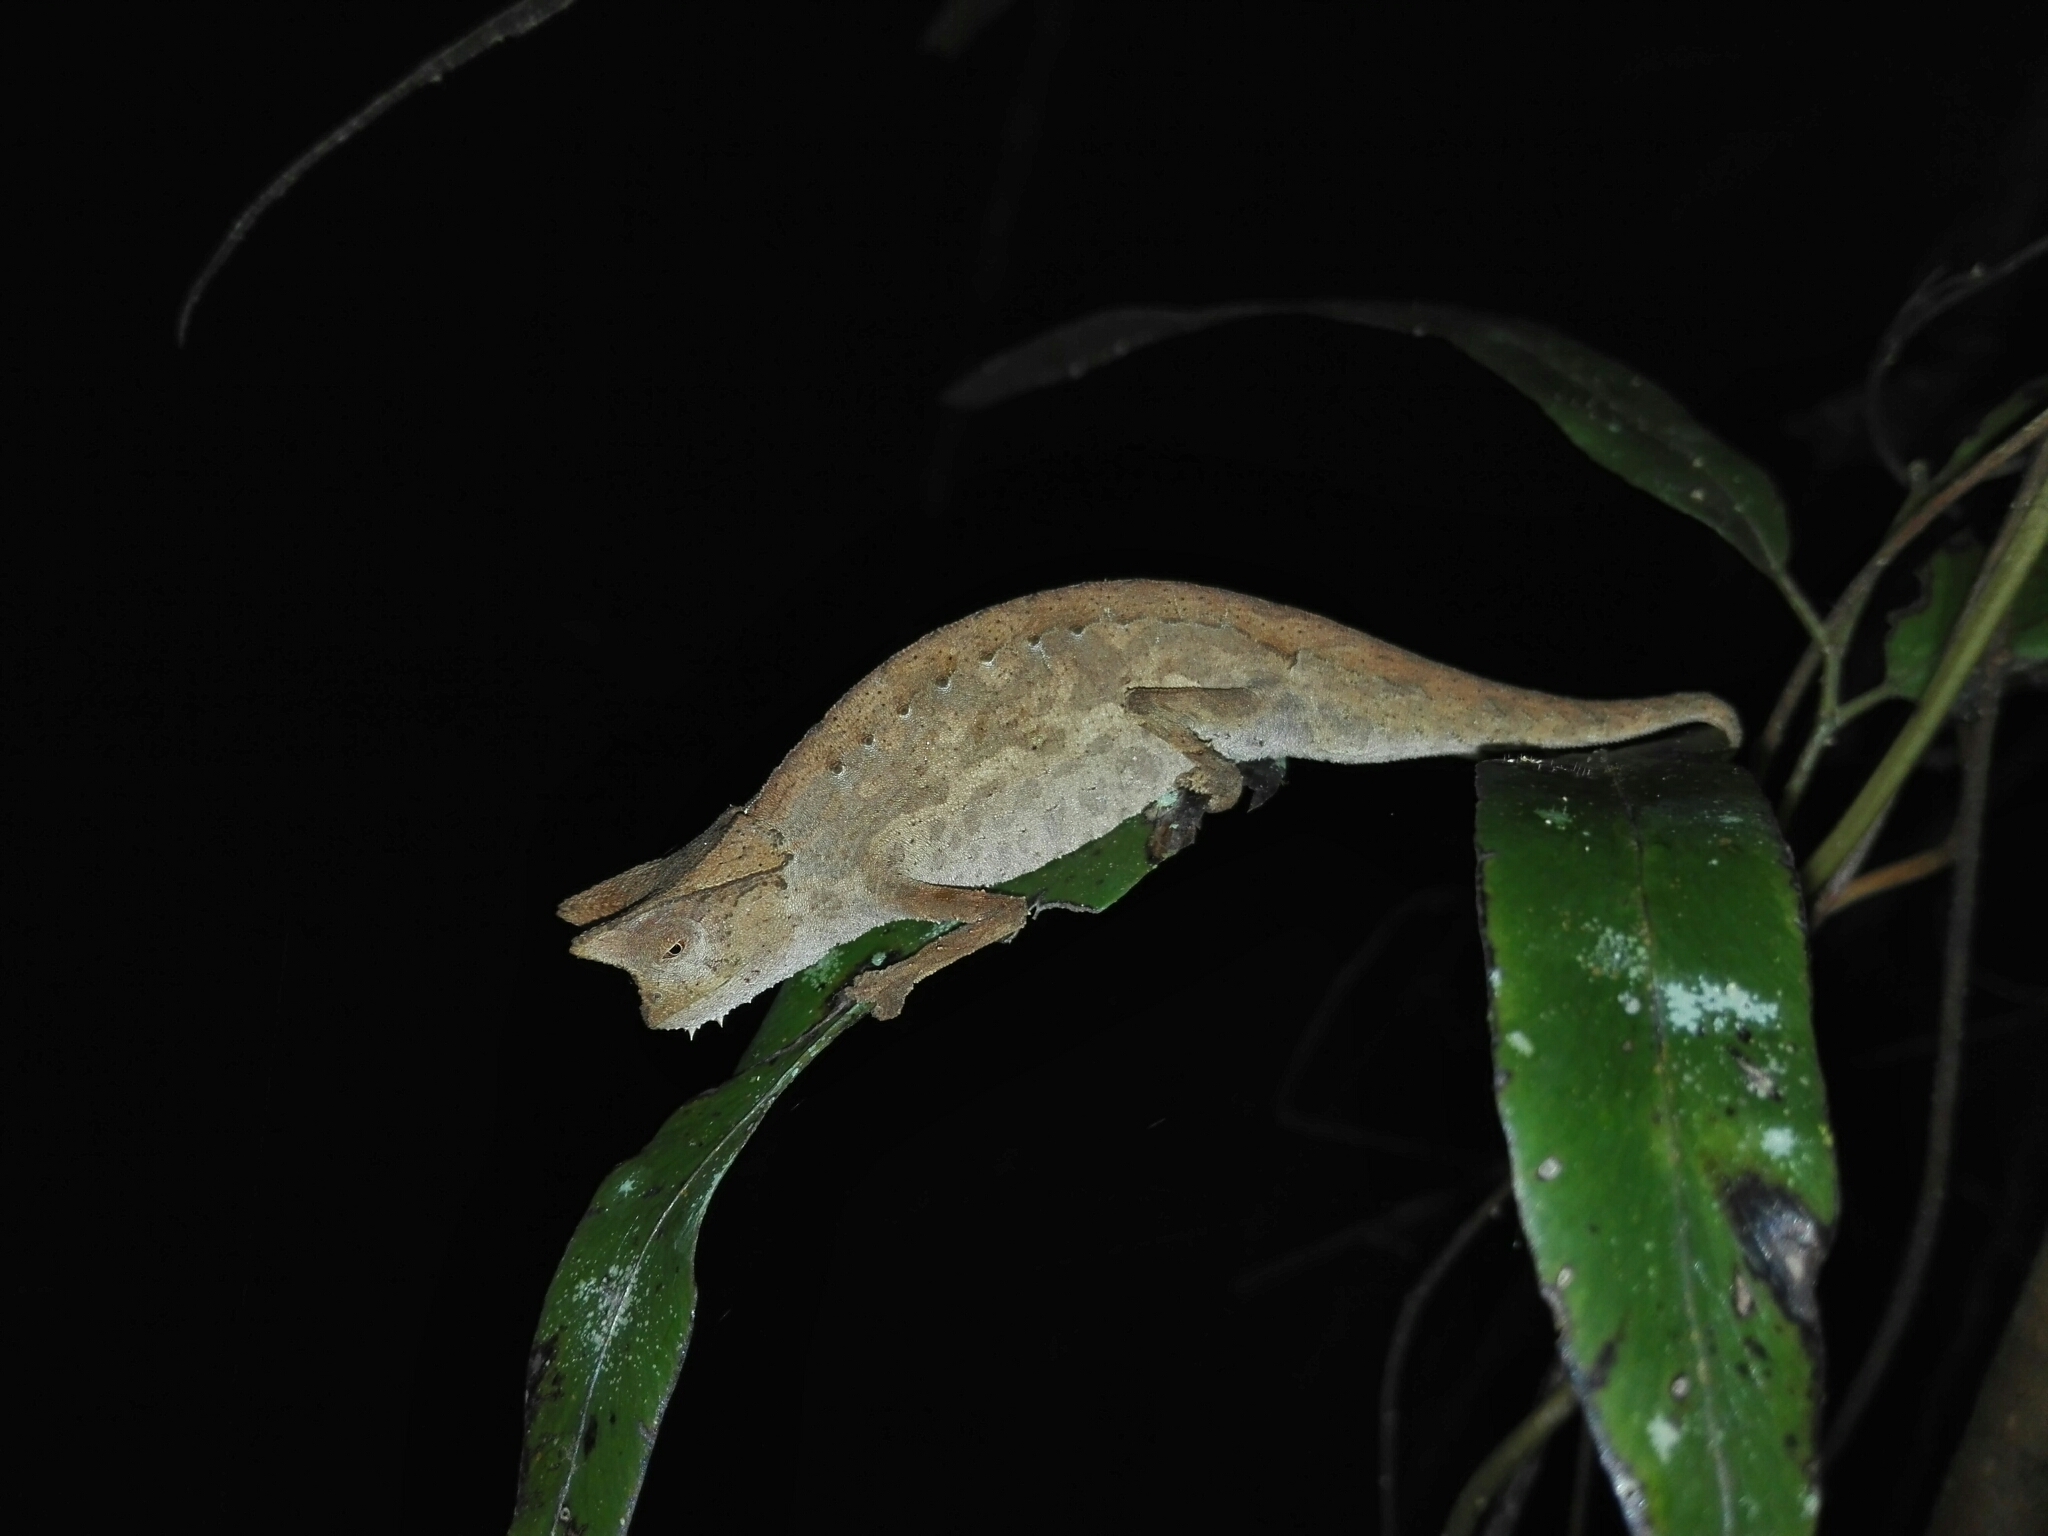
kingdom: Animalia
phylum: Chordata
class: Squamata
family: Chamaeleonidae
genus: Brookesia
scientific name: Brookesia superciliaris
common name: Brown leaf chameleon
